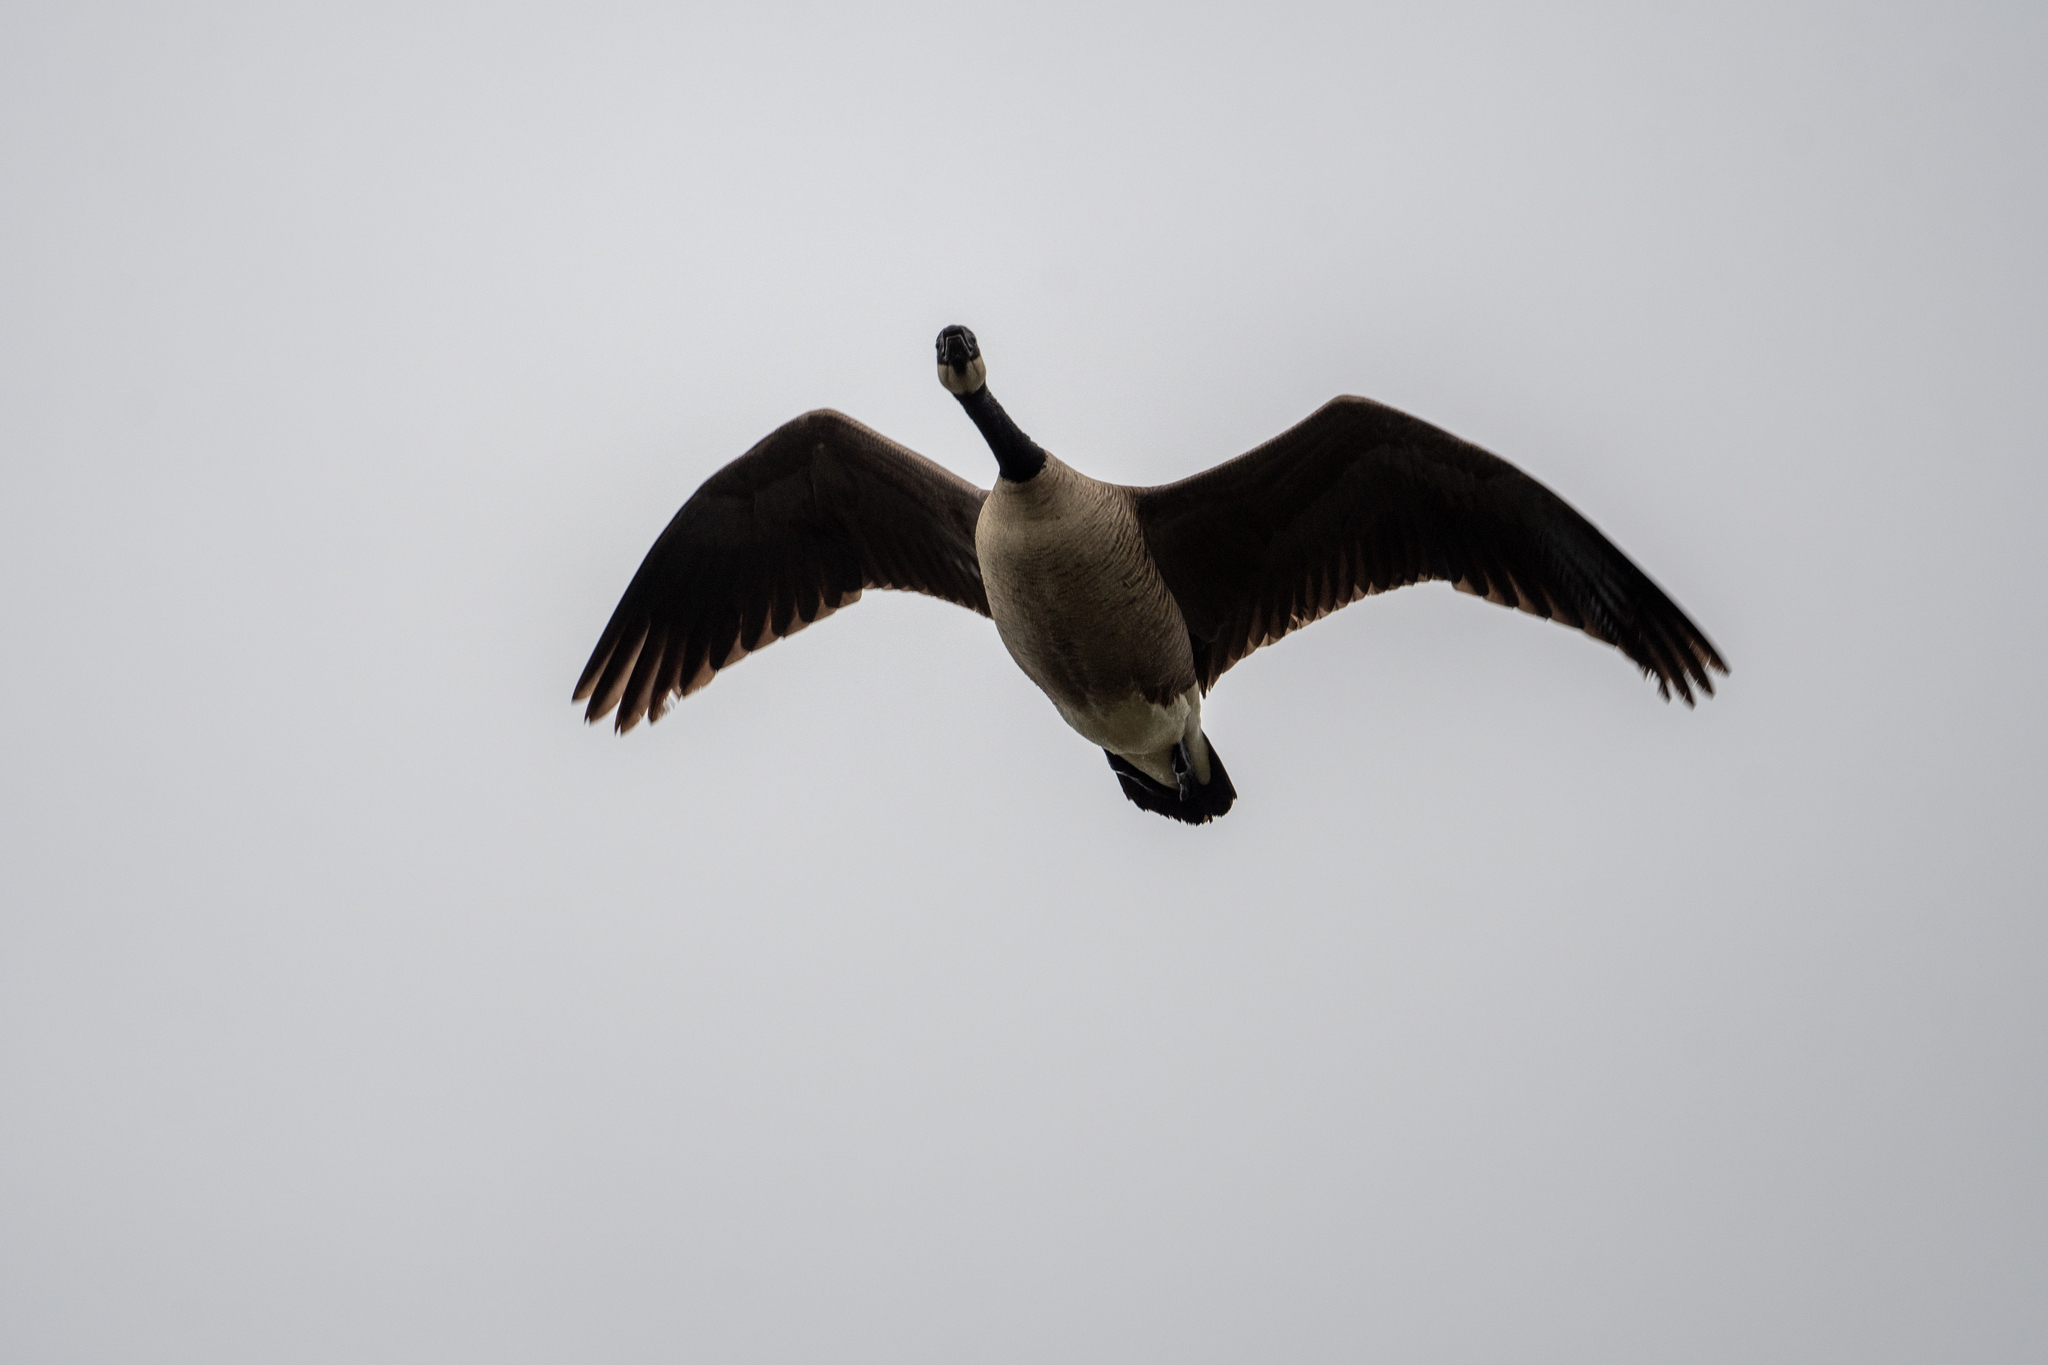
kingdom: Animalia
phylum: Chordata
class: Aves
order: Anseriformes
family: Anatidae
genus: Branta
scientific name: Branta canadensis
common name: Canada goose
